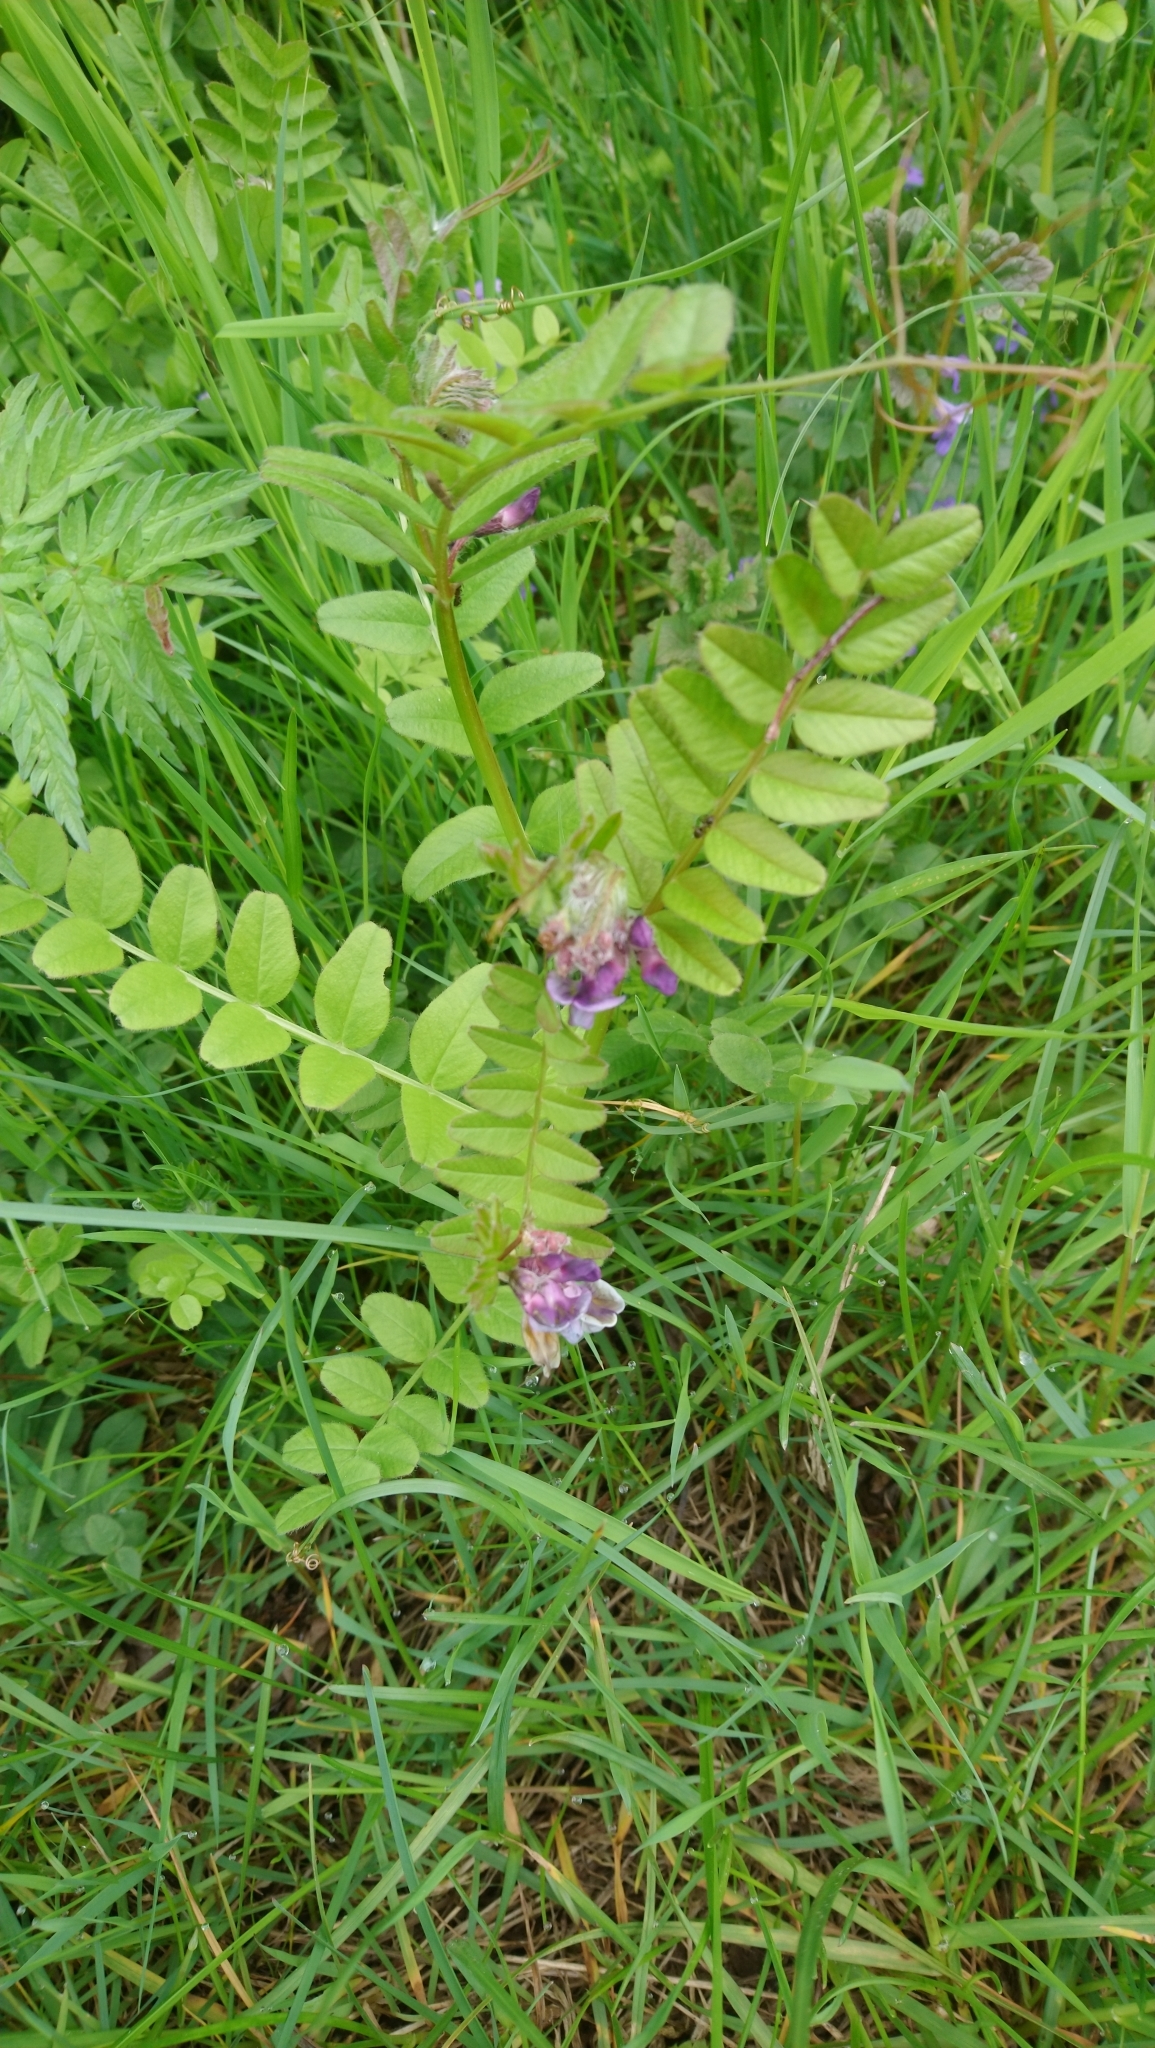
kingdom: Plantae
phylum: Tracheophyta
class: Magnoliopsida
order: Fabales
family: Fabaceae
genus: Vicia
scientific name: Vicia sepium
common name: Bush vetch
